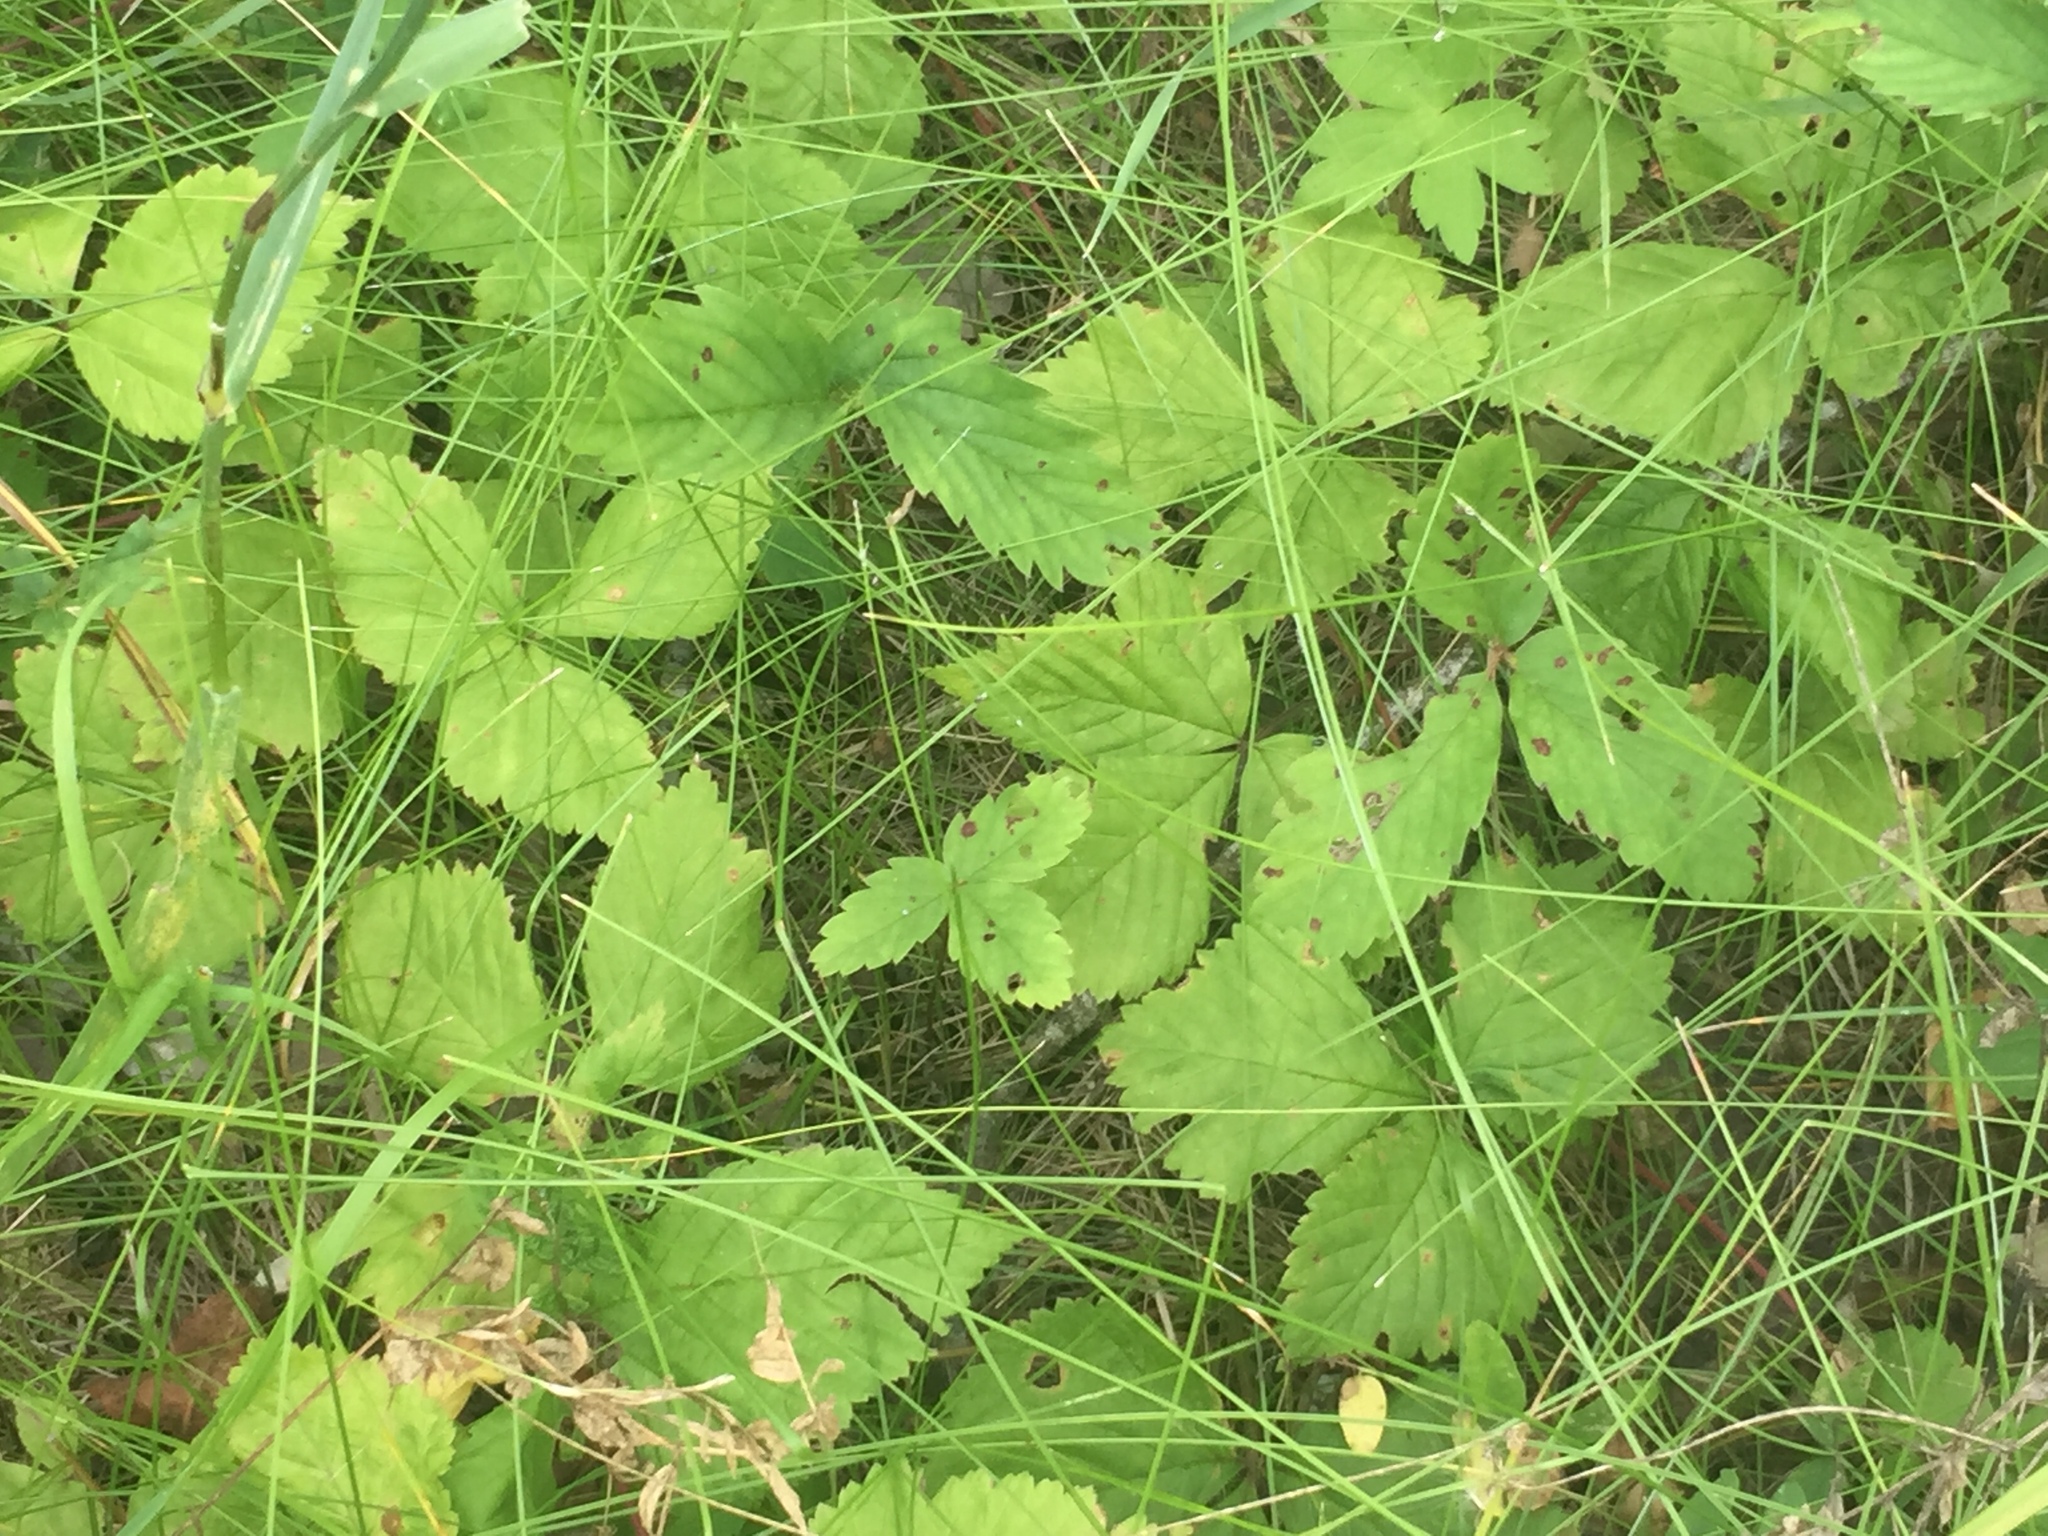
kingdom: Plantae
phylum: Tracheophyta
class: Magnoliopsida
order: Rosales
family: Rosaceae
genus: Rubus
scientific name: Rubus pubescens
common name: Dwarf raspberry
